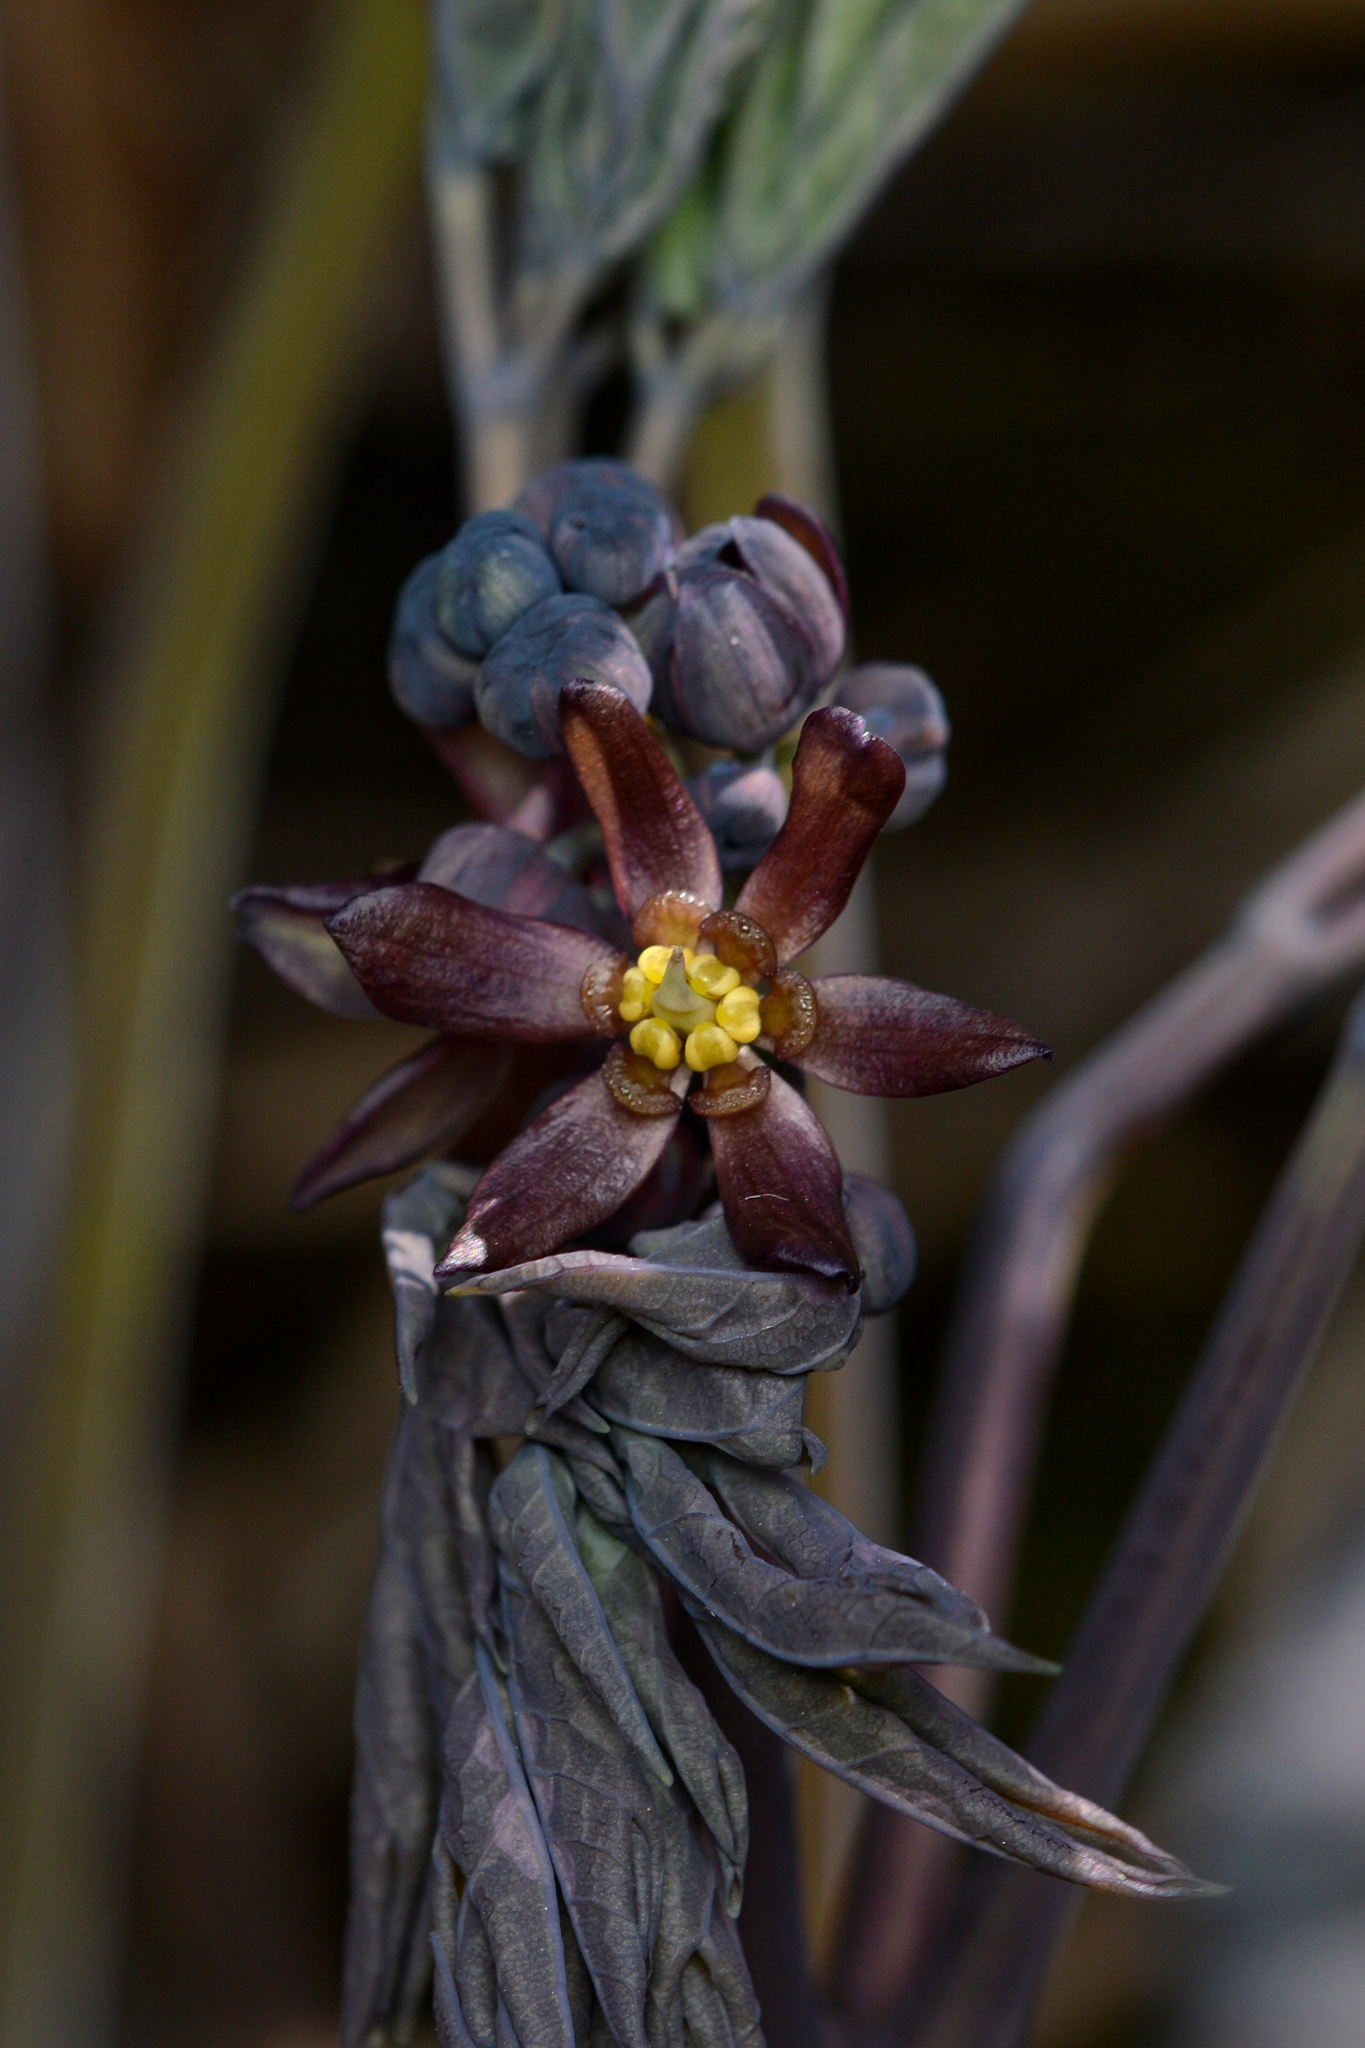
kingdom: Plantae
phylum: Tracheophyta
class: Magnoliopsida
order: Ranunculales
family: Berberidaceae
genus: Caulophyllum
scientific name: Caulophyllum giganteum
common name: Blue cohosh
